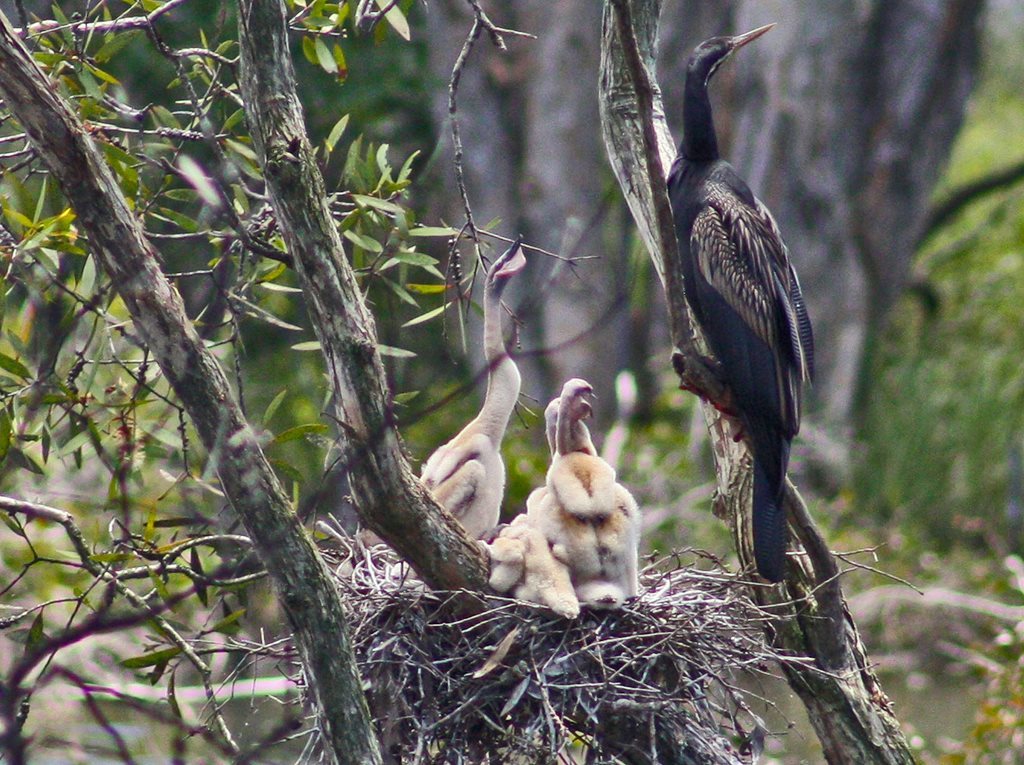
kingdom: Animalia
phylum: Chordata
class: Aves
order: Suliformes
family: Anhingidae
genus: Anhinga
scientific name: Anhinga novaehollandiae
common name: Australasian darter
